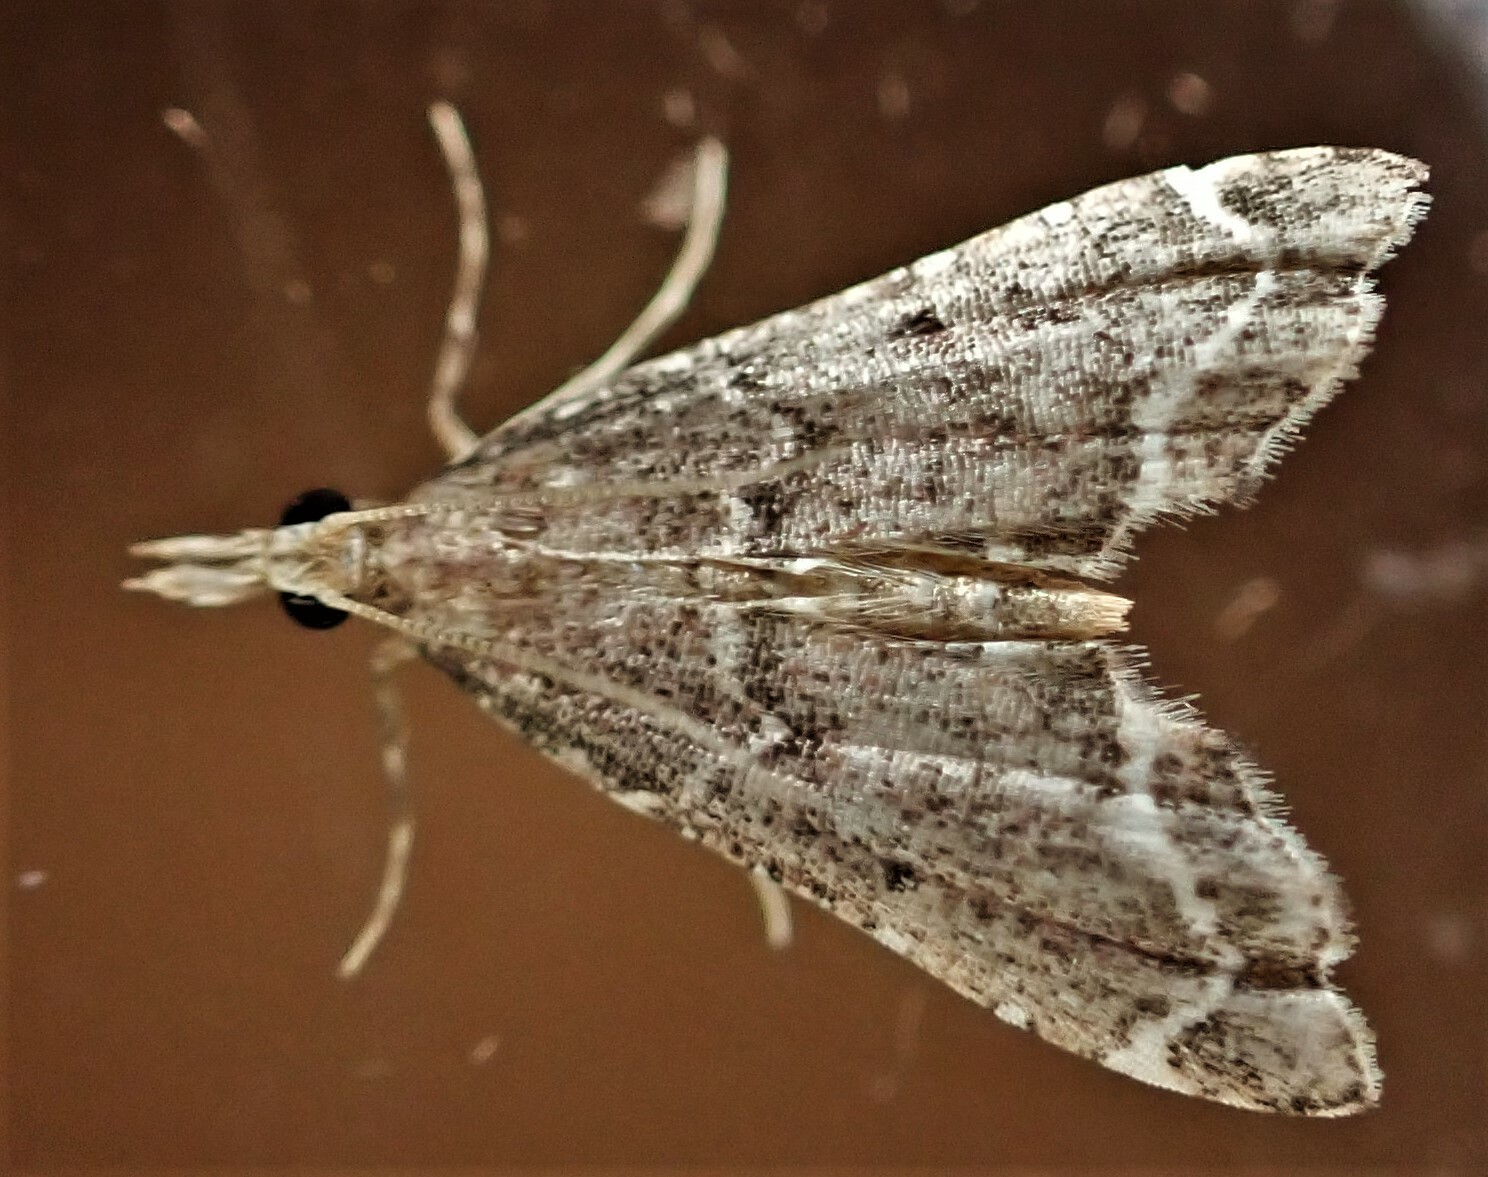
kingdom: Animalia
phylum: Arthropoda
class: Insecta
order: Lepidoptera
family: Crambidae
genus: Diplopseustis
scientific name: Diplopseustis perieresalis
